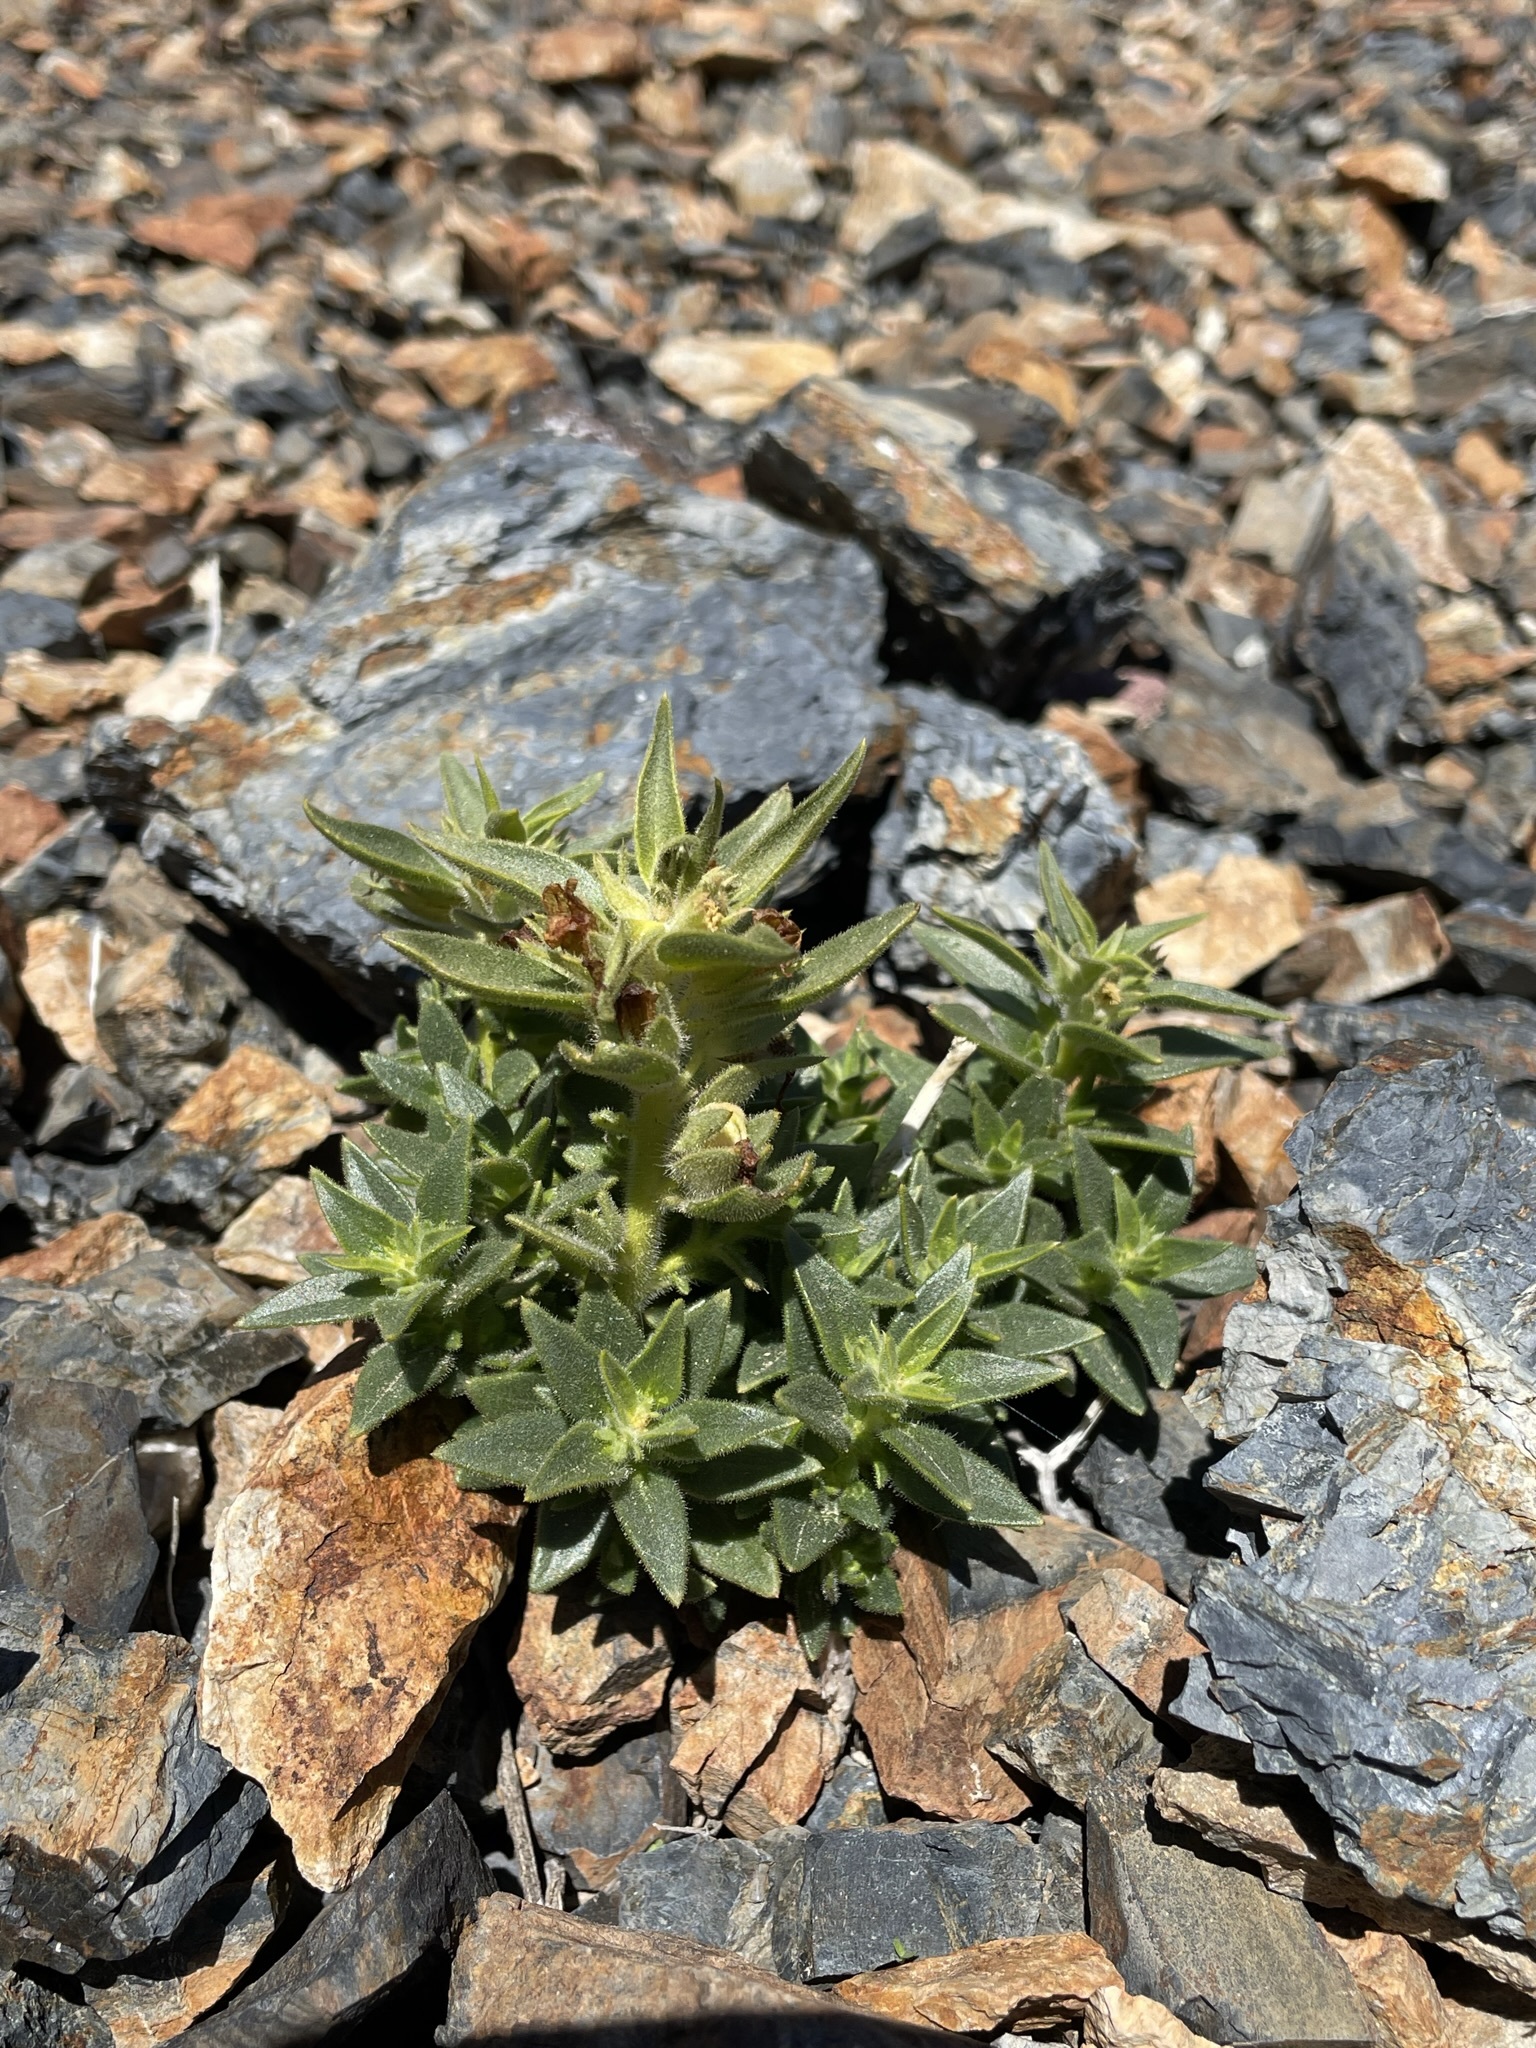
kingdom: Plantae
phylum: Tracheophyta
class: Magnoliopsida
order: Lamiales
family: Plantaginaceae
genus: Mohavea
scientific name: Mohavea breviflora
